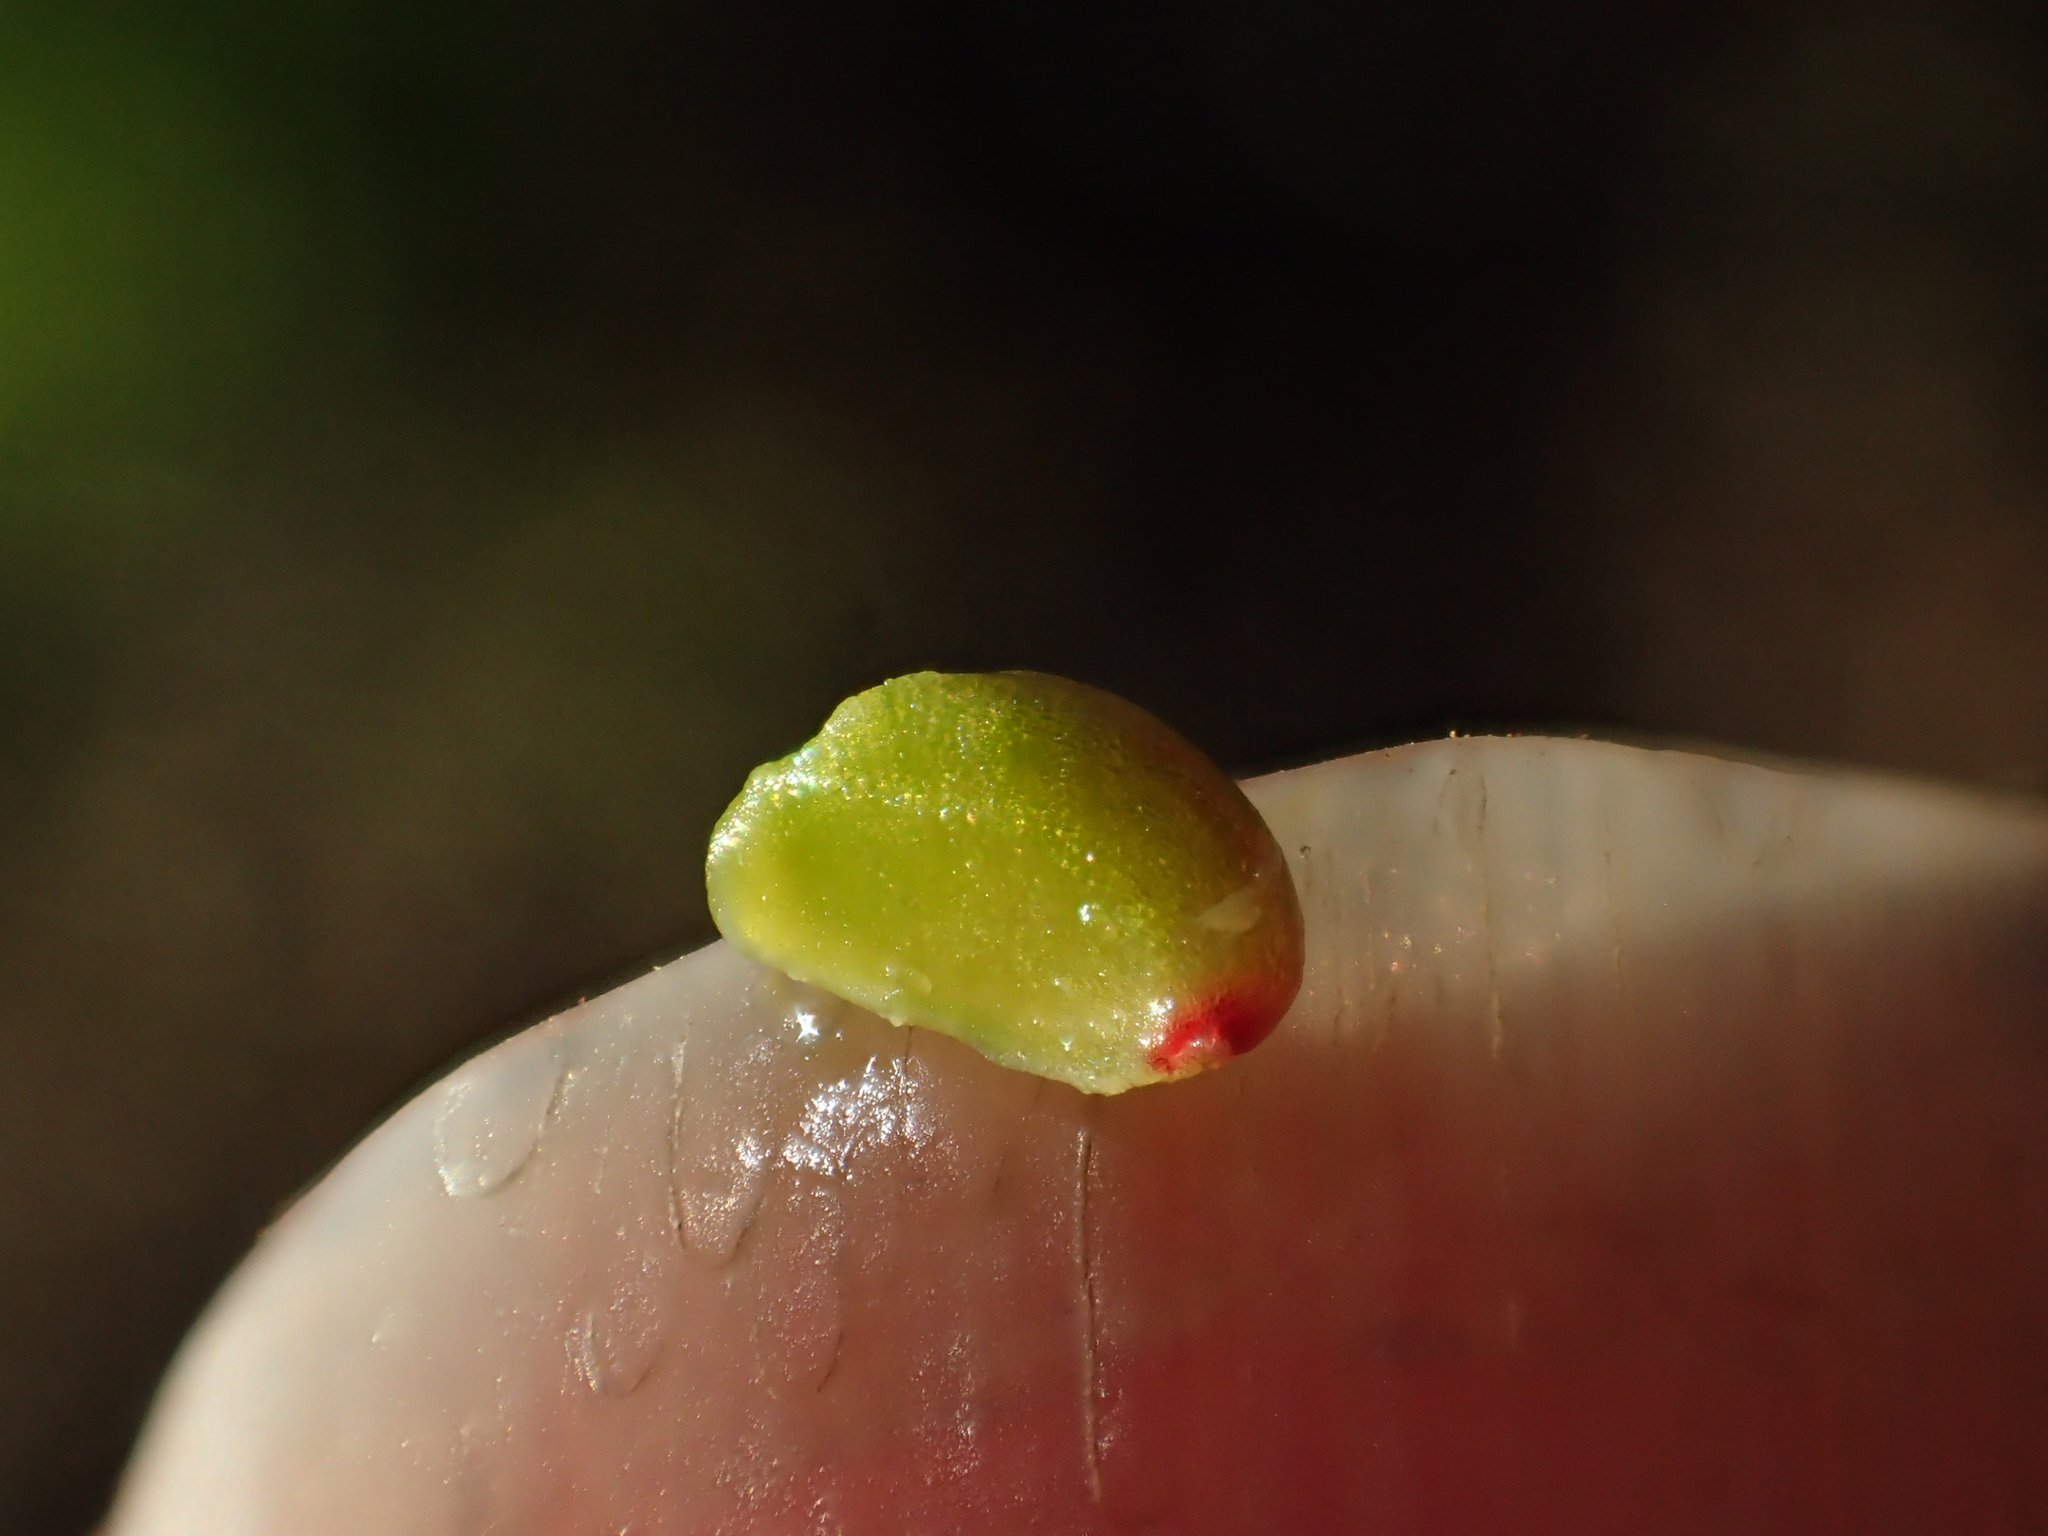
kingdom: Plantae
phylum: Tracheophyta
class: Magnoliopsida
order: Ranunculales
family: Berberidaceae
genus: Berberis
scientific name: Berberis darwinii
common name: Darwin's barberry
